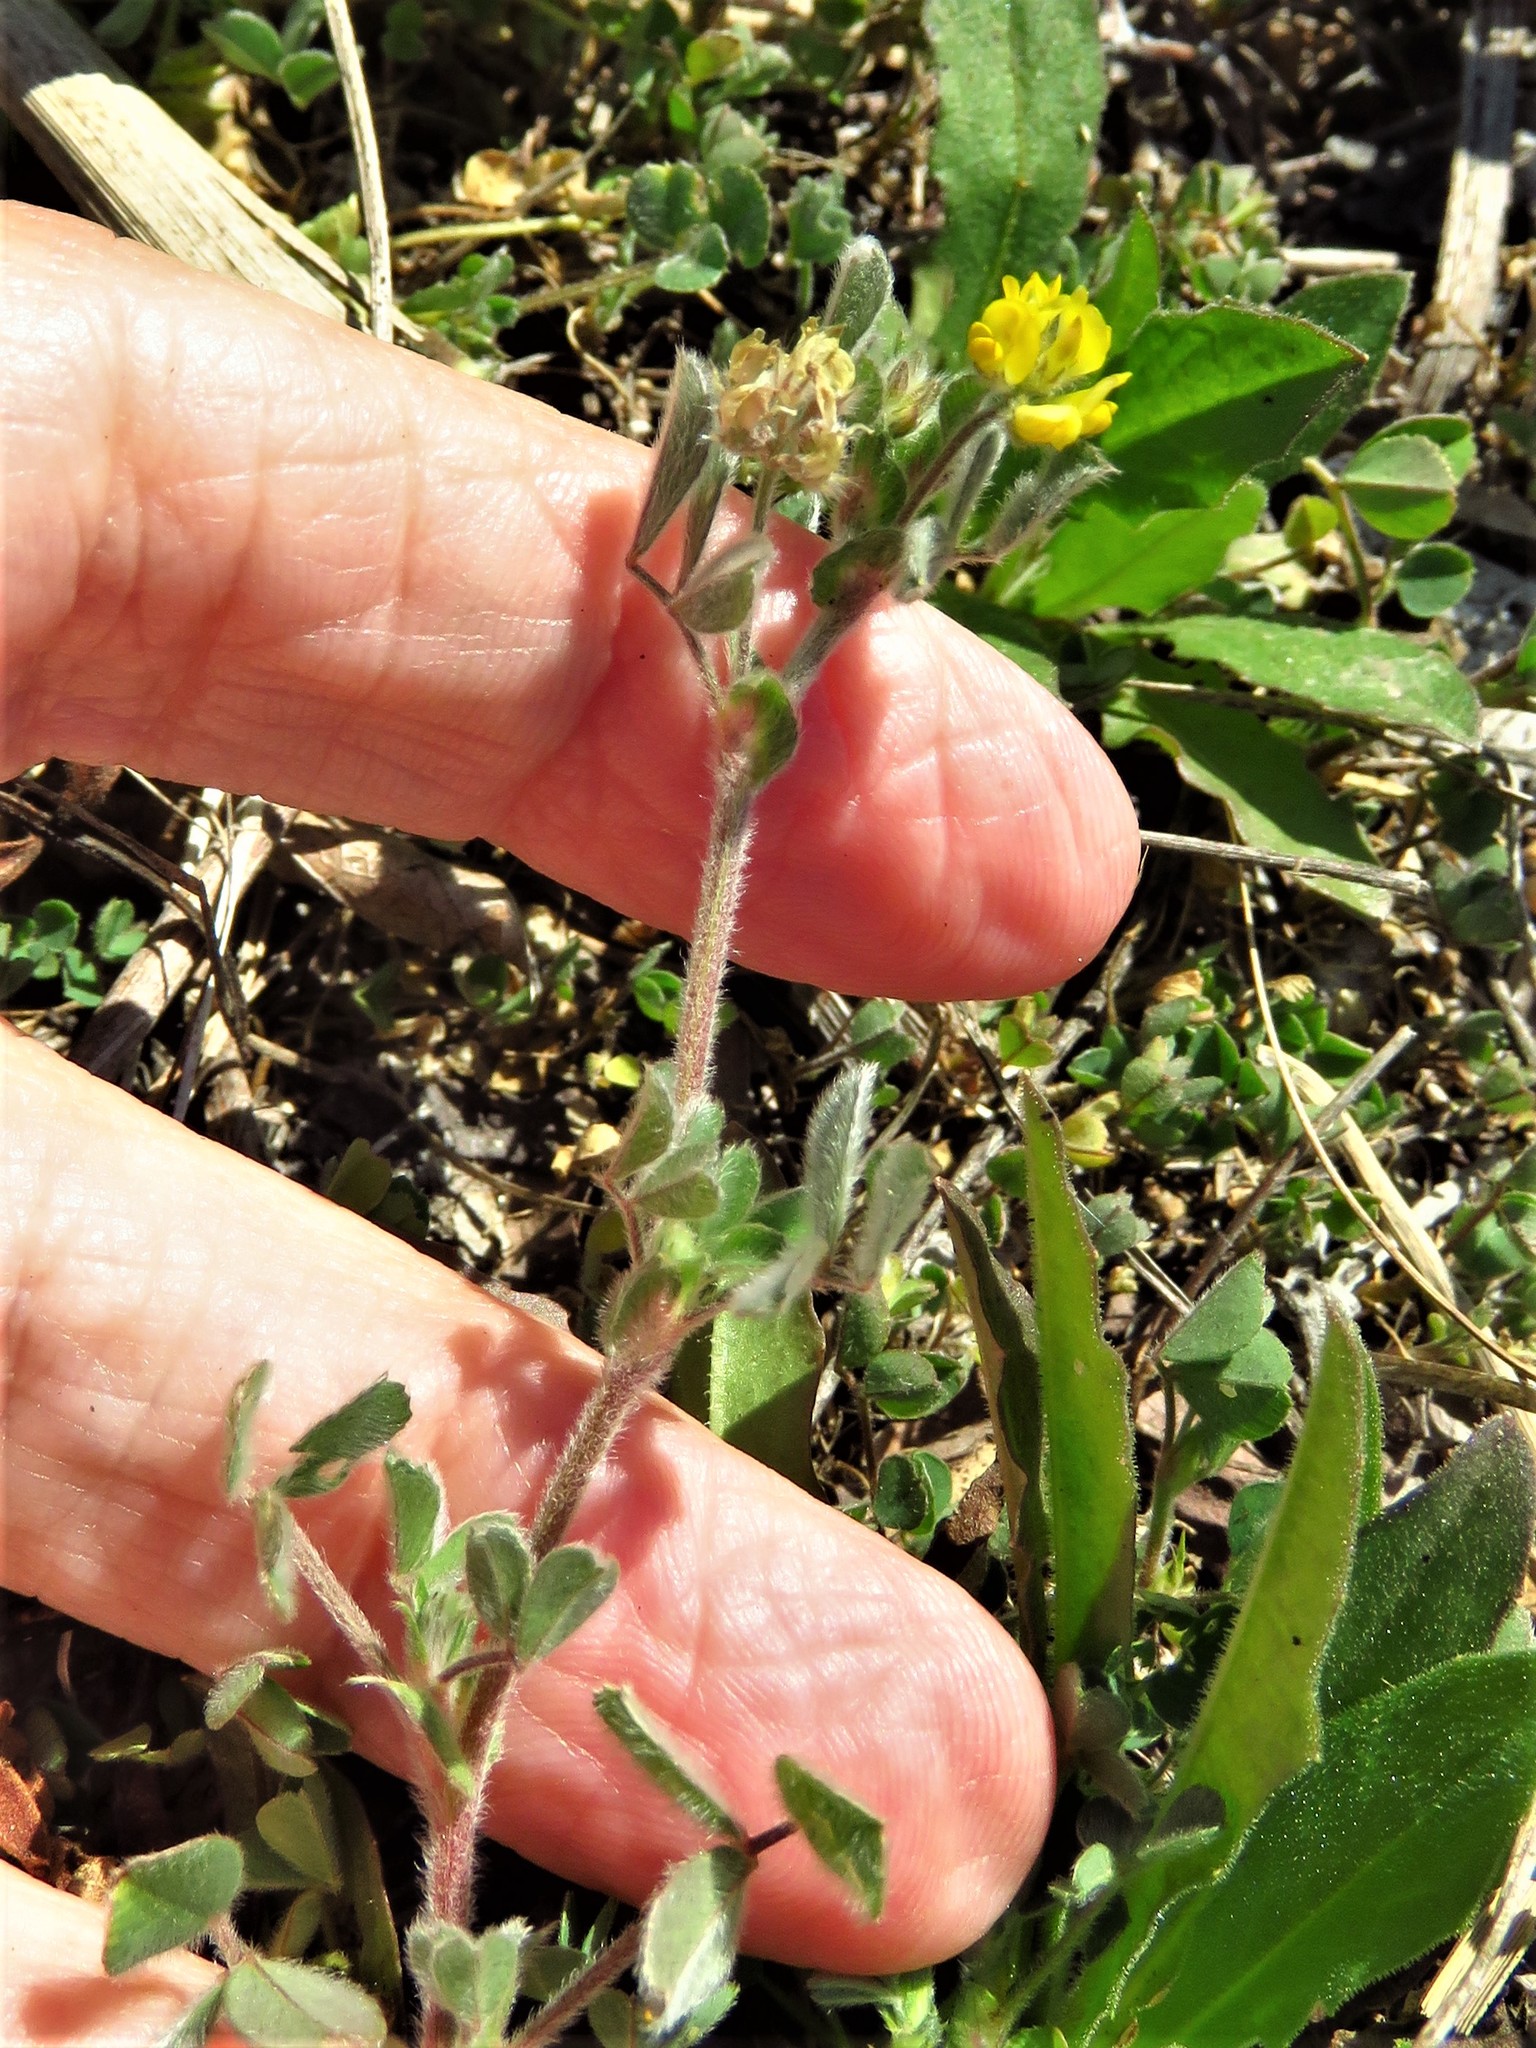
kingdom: Plantae
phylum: Tracheophyta
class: Magnoliopsida
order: Fabales
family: Fabaceae
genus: Medicago
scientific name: Medicago minima
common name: Little bur-clover
